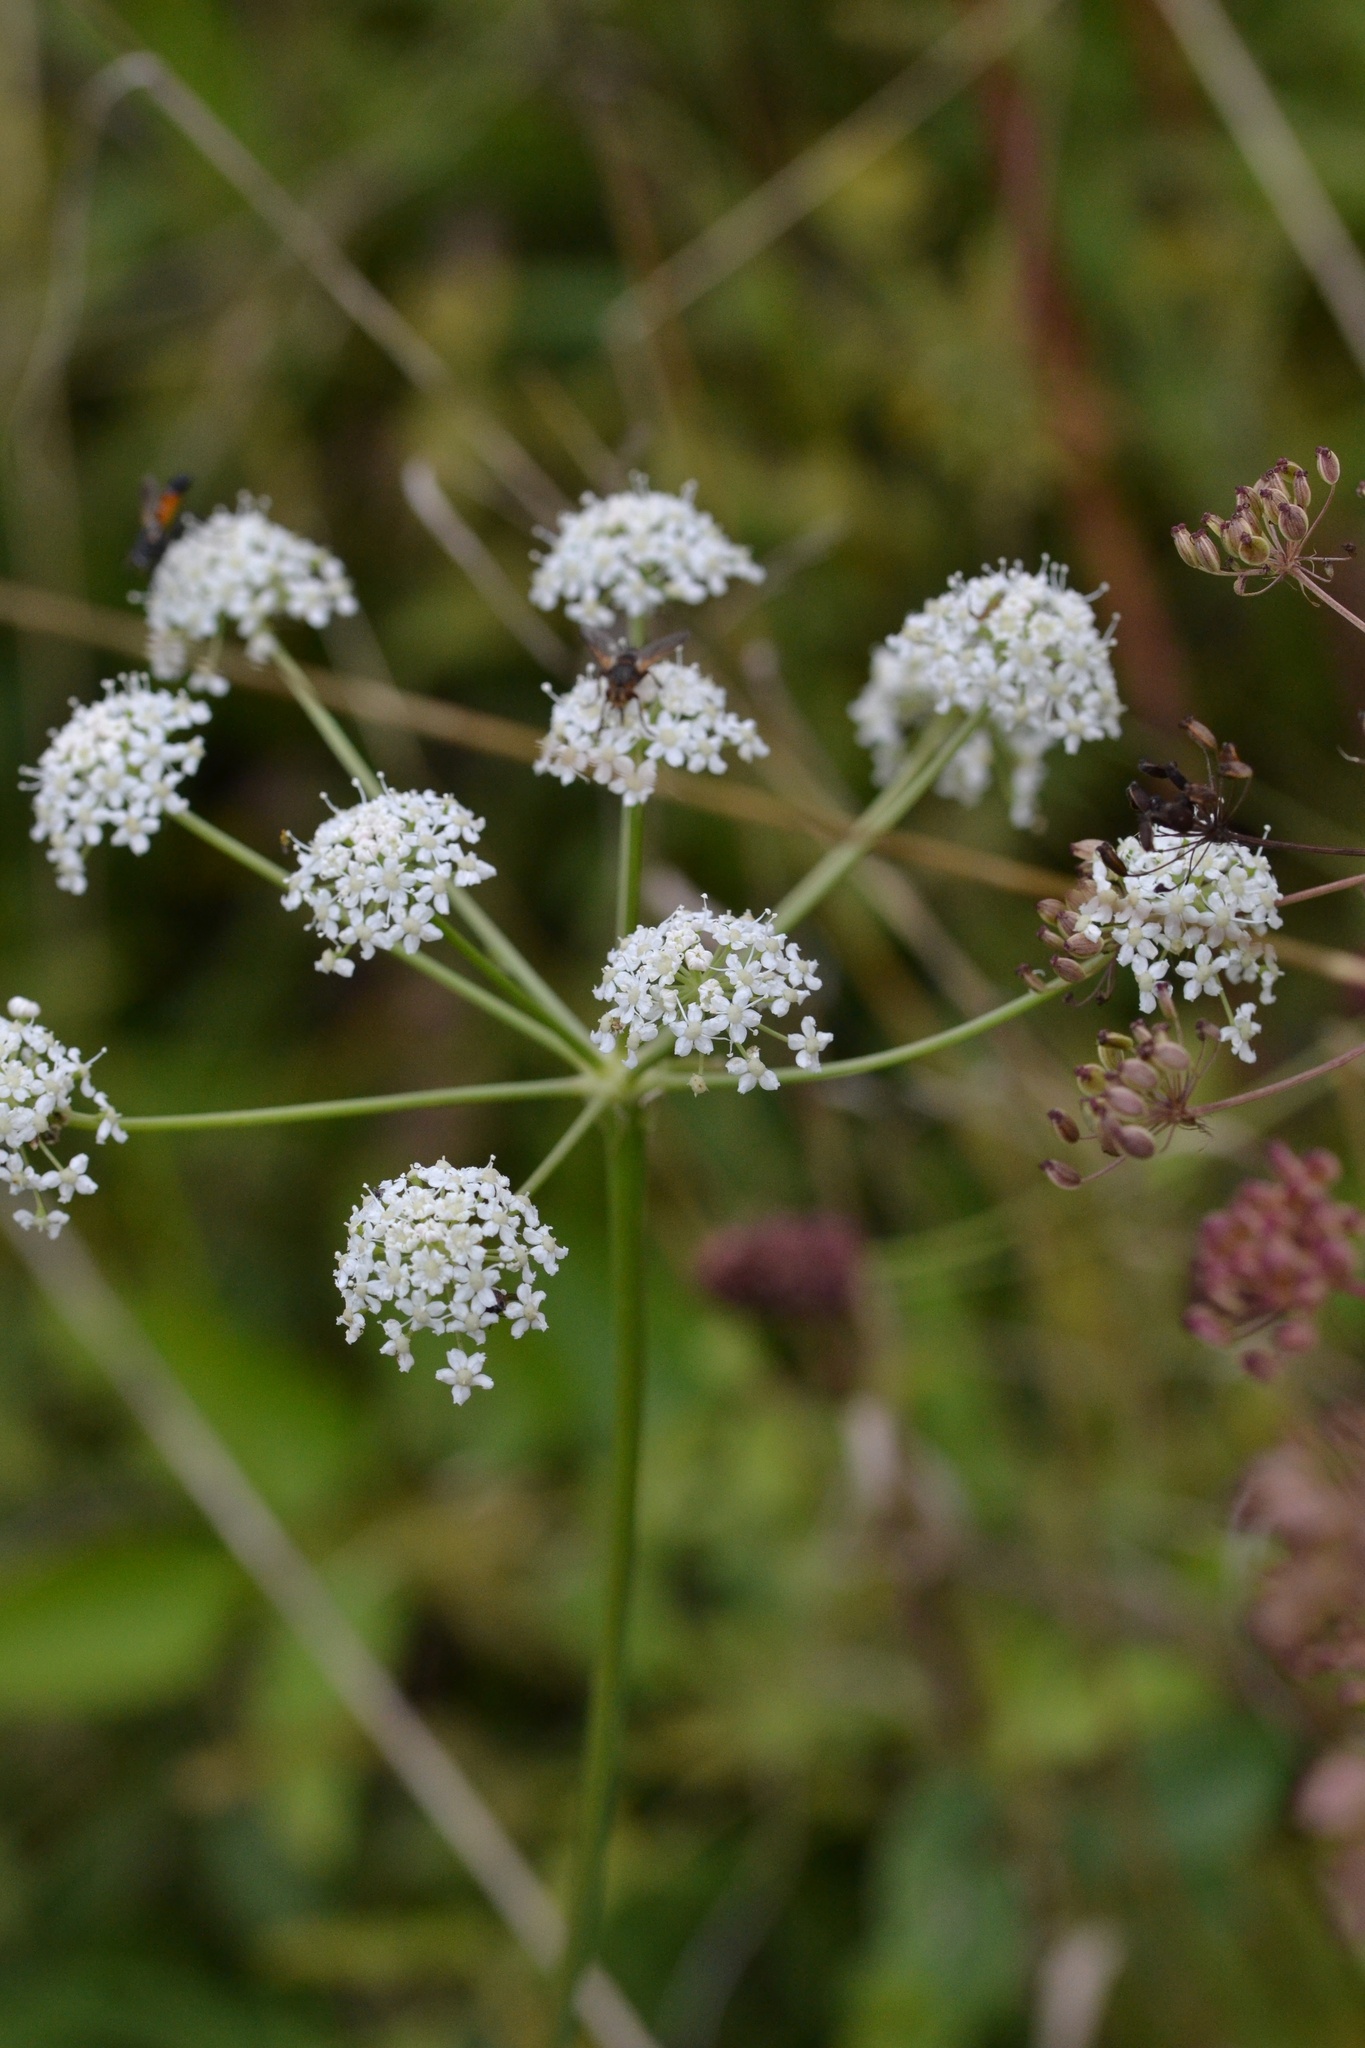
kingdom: Plantae
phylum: Tracheophyta
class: Magnoliopsida
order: Apiales
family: Apiaceae
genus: Cervaria
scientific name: Cervaria rivini
